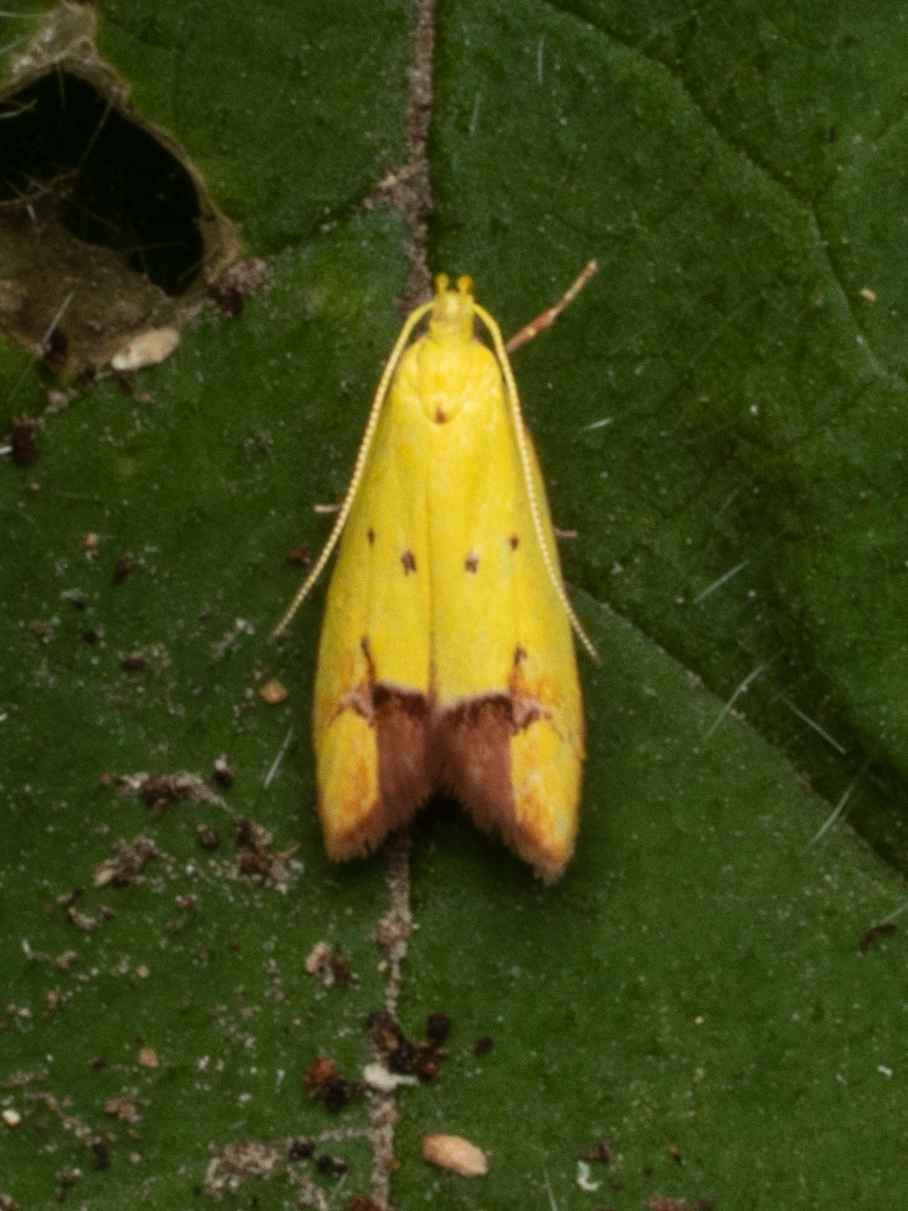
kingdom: Animalia
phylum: Arthropoda
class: Insecta
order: Lepidoptera
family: Oecophoridae
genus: Gymnobathra
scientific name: Gymnobathra flavidella
